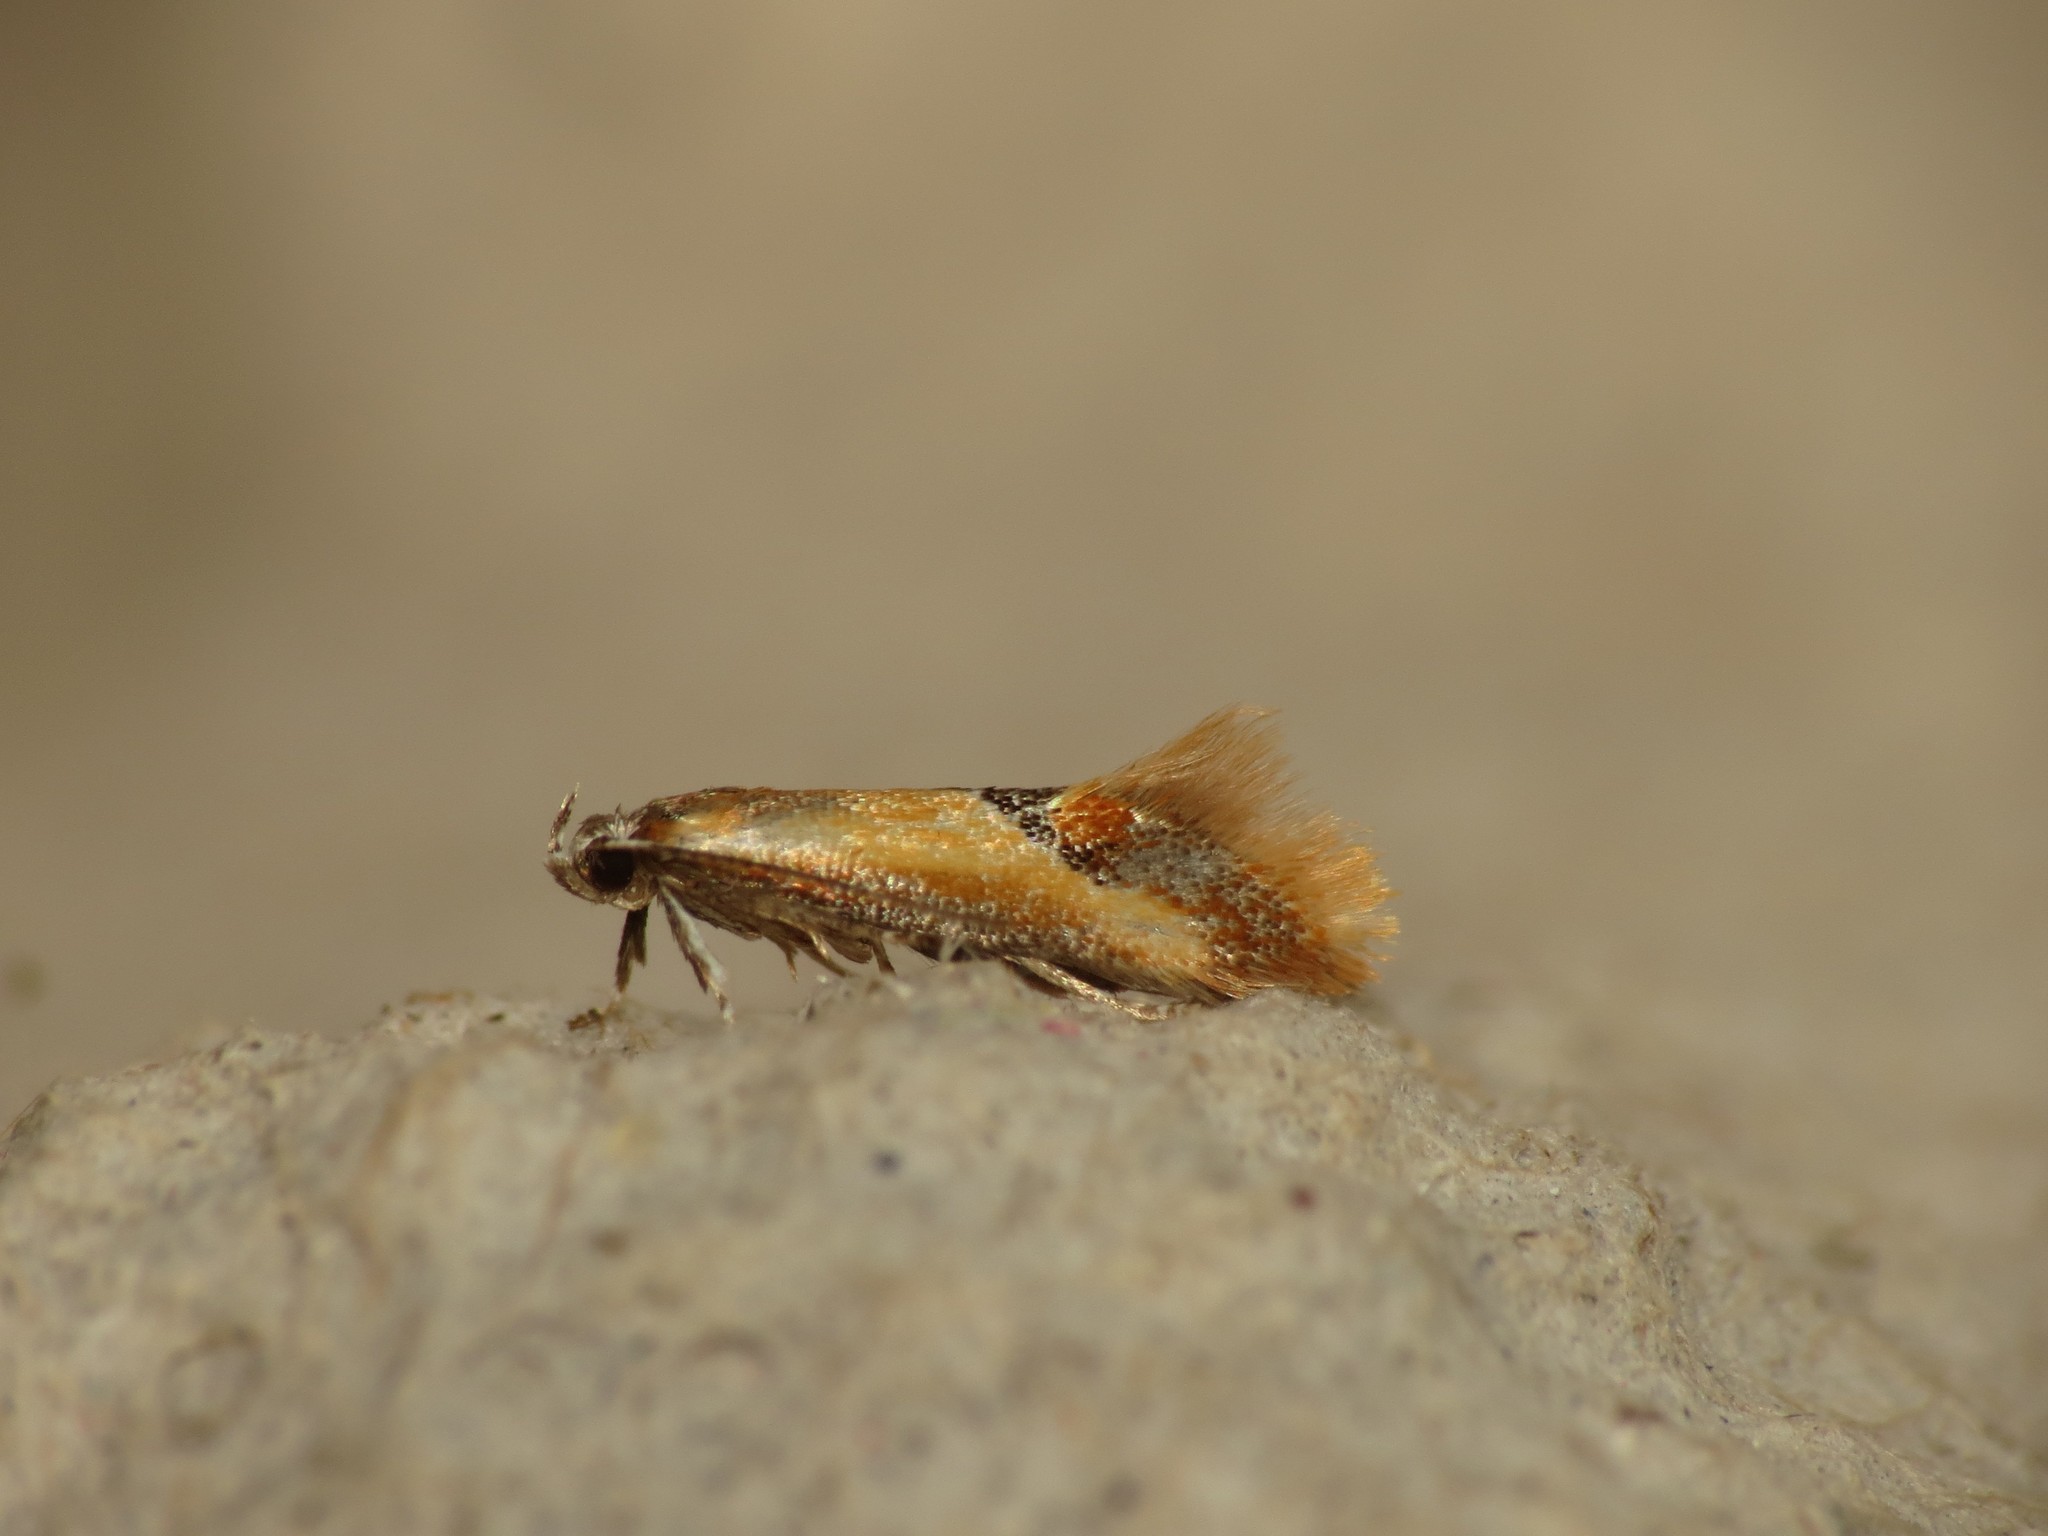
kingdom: Animalia
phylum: Arthropoda
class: Insecta
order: Lepidoptera
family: Oecophoridae
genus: Batia
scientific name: Batia lunaris
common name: Moth
